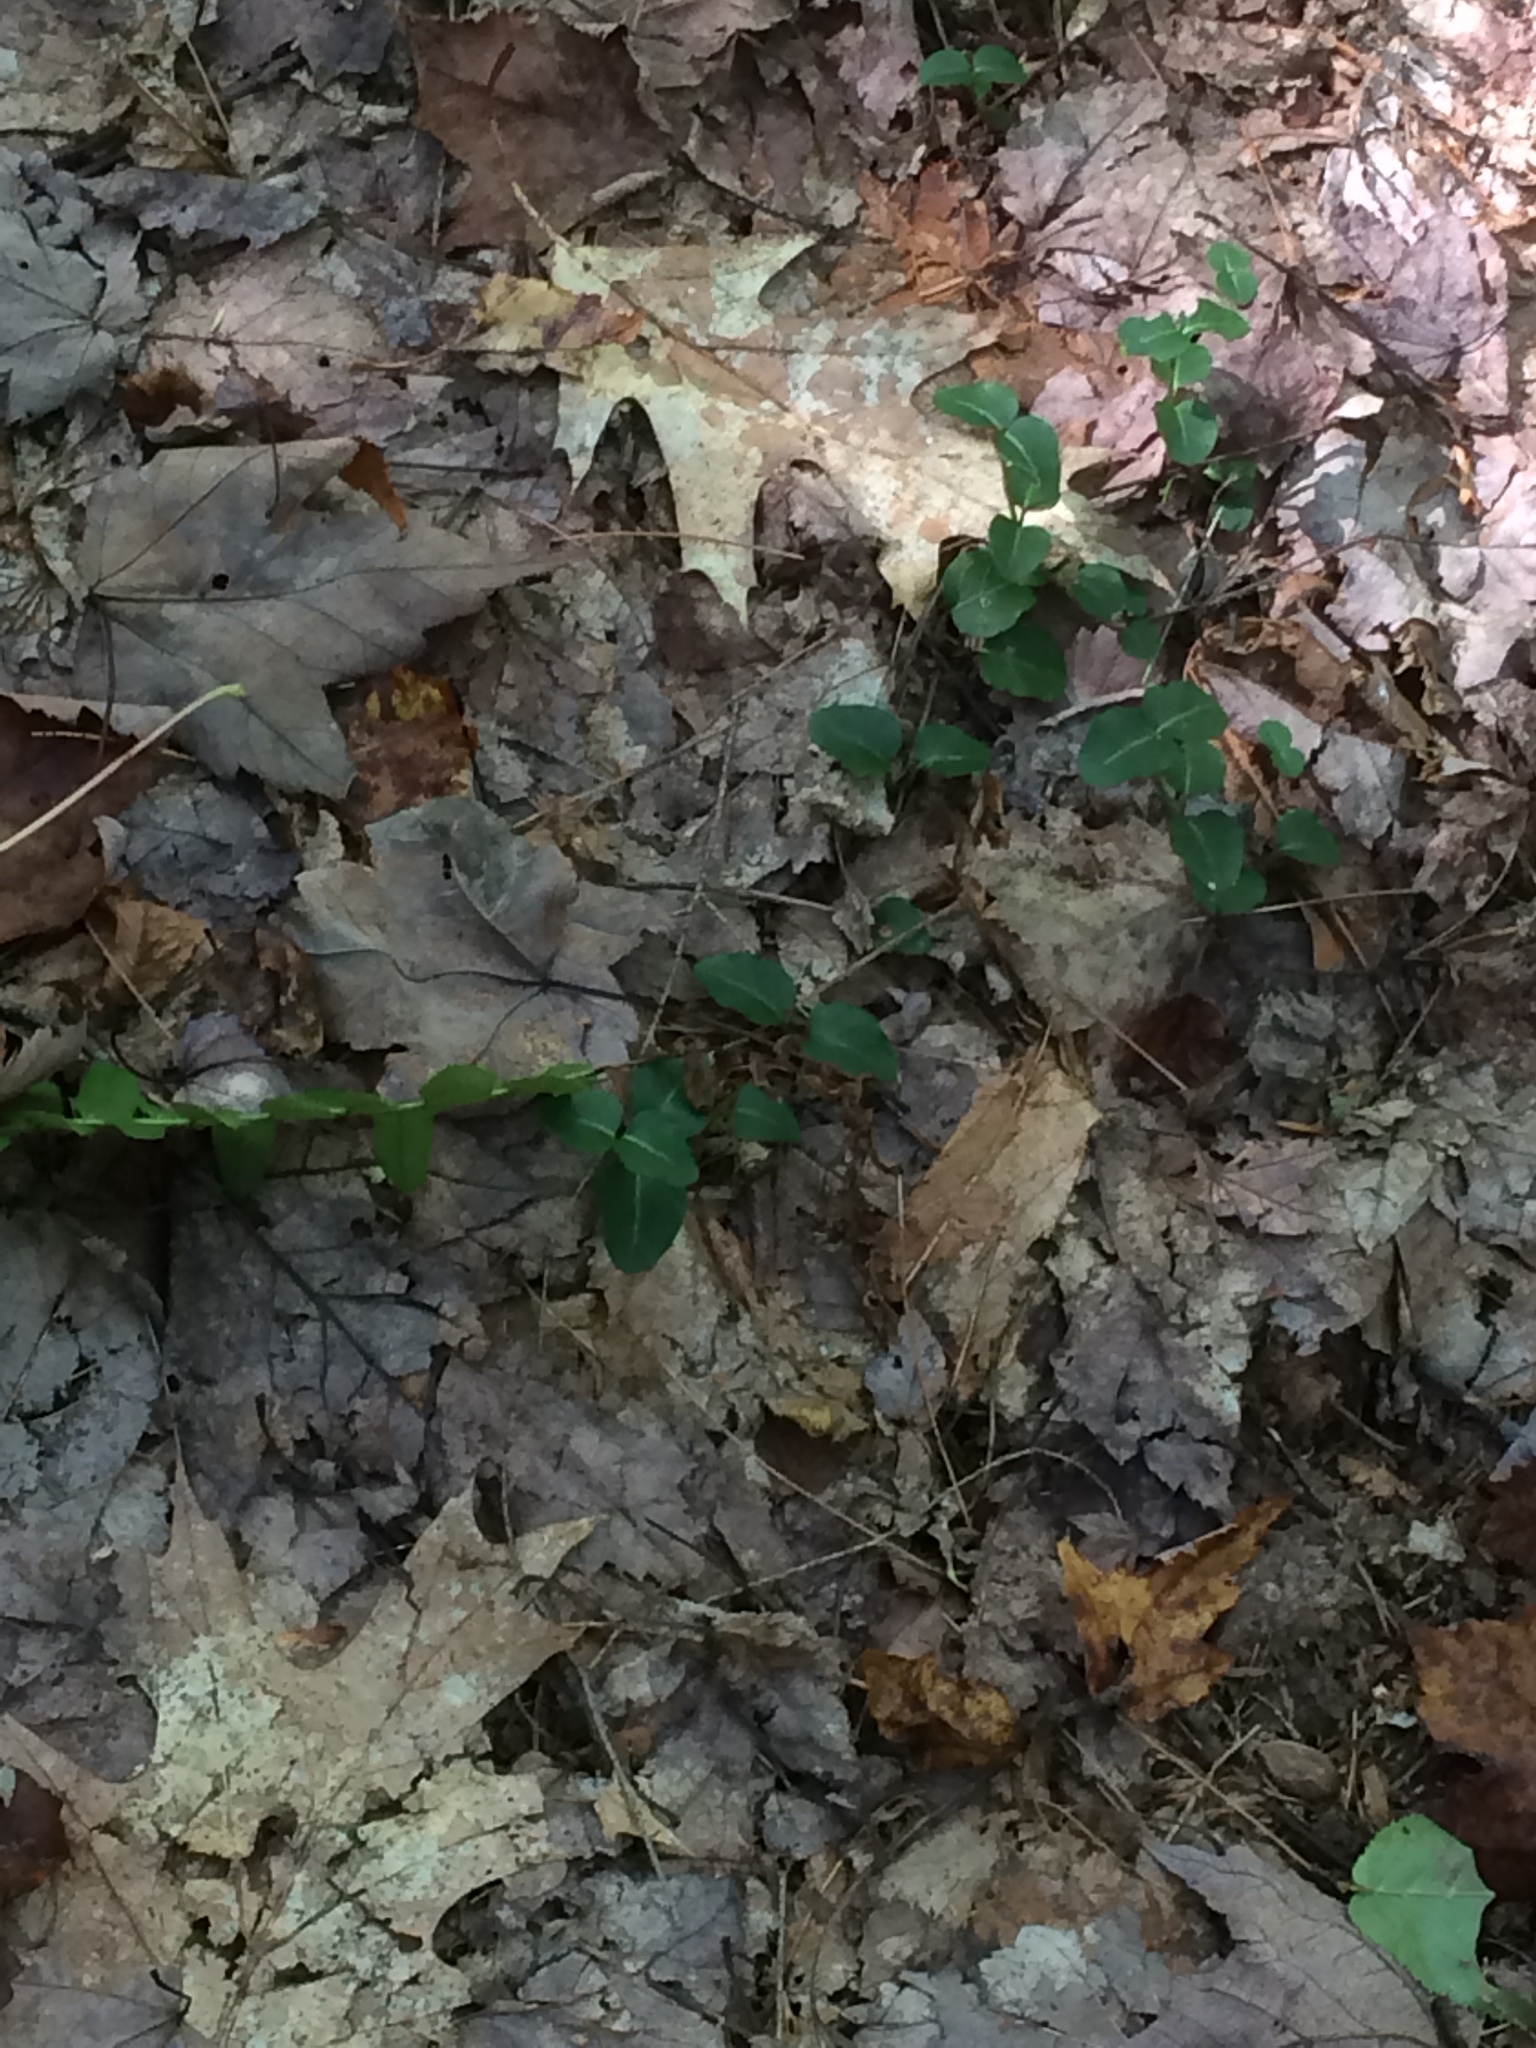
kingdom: Plantae
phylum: Tracheophyta
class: Magnoliopsida
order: Gentianales
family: Rubiaceae
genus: Mitchella
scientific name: Mitchella repens
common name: Partridge-berry
